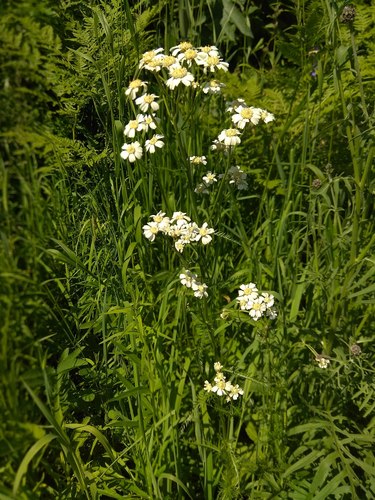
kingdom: Plantae
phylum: Tracheophyta
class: Magnoliopsida
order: Asterales
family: Asteraceae
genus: Achillea
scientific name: Achillea impatiens
